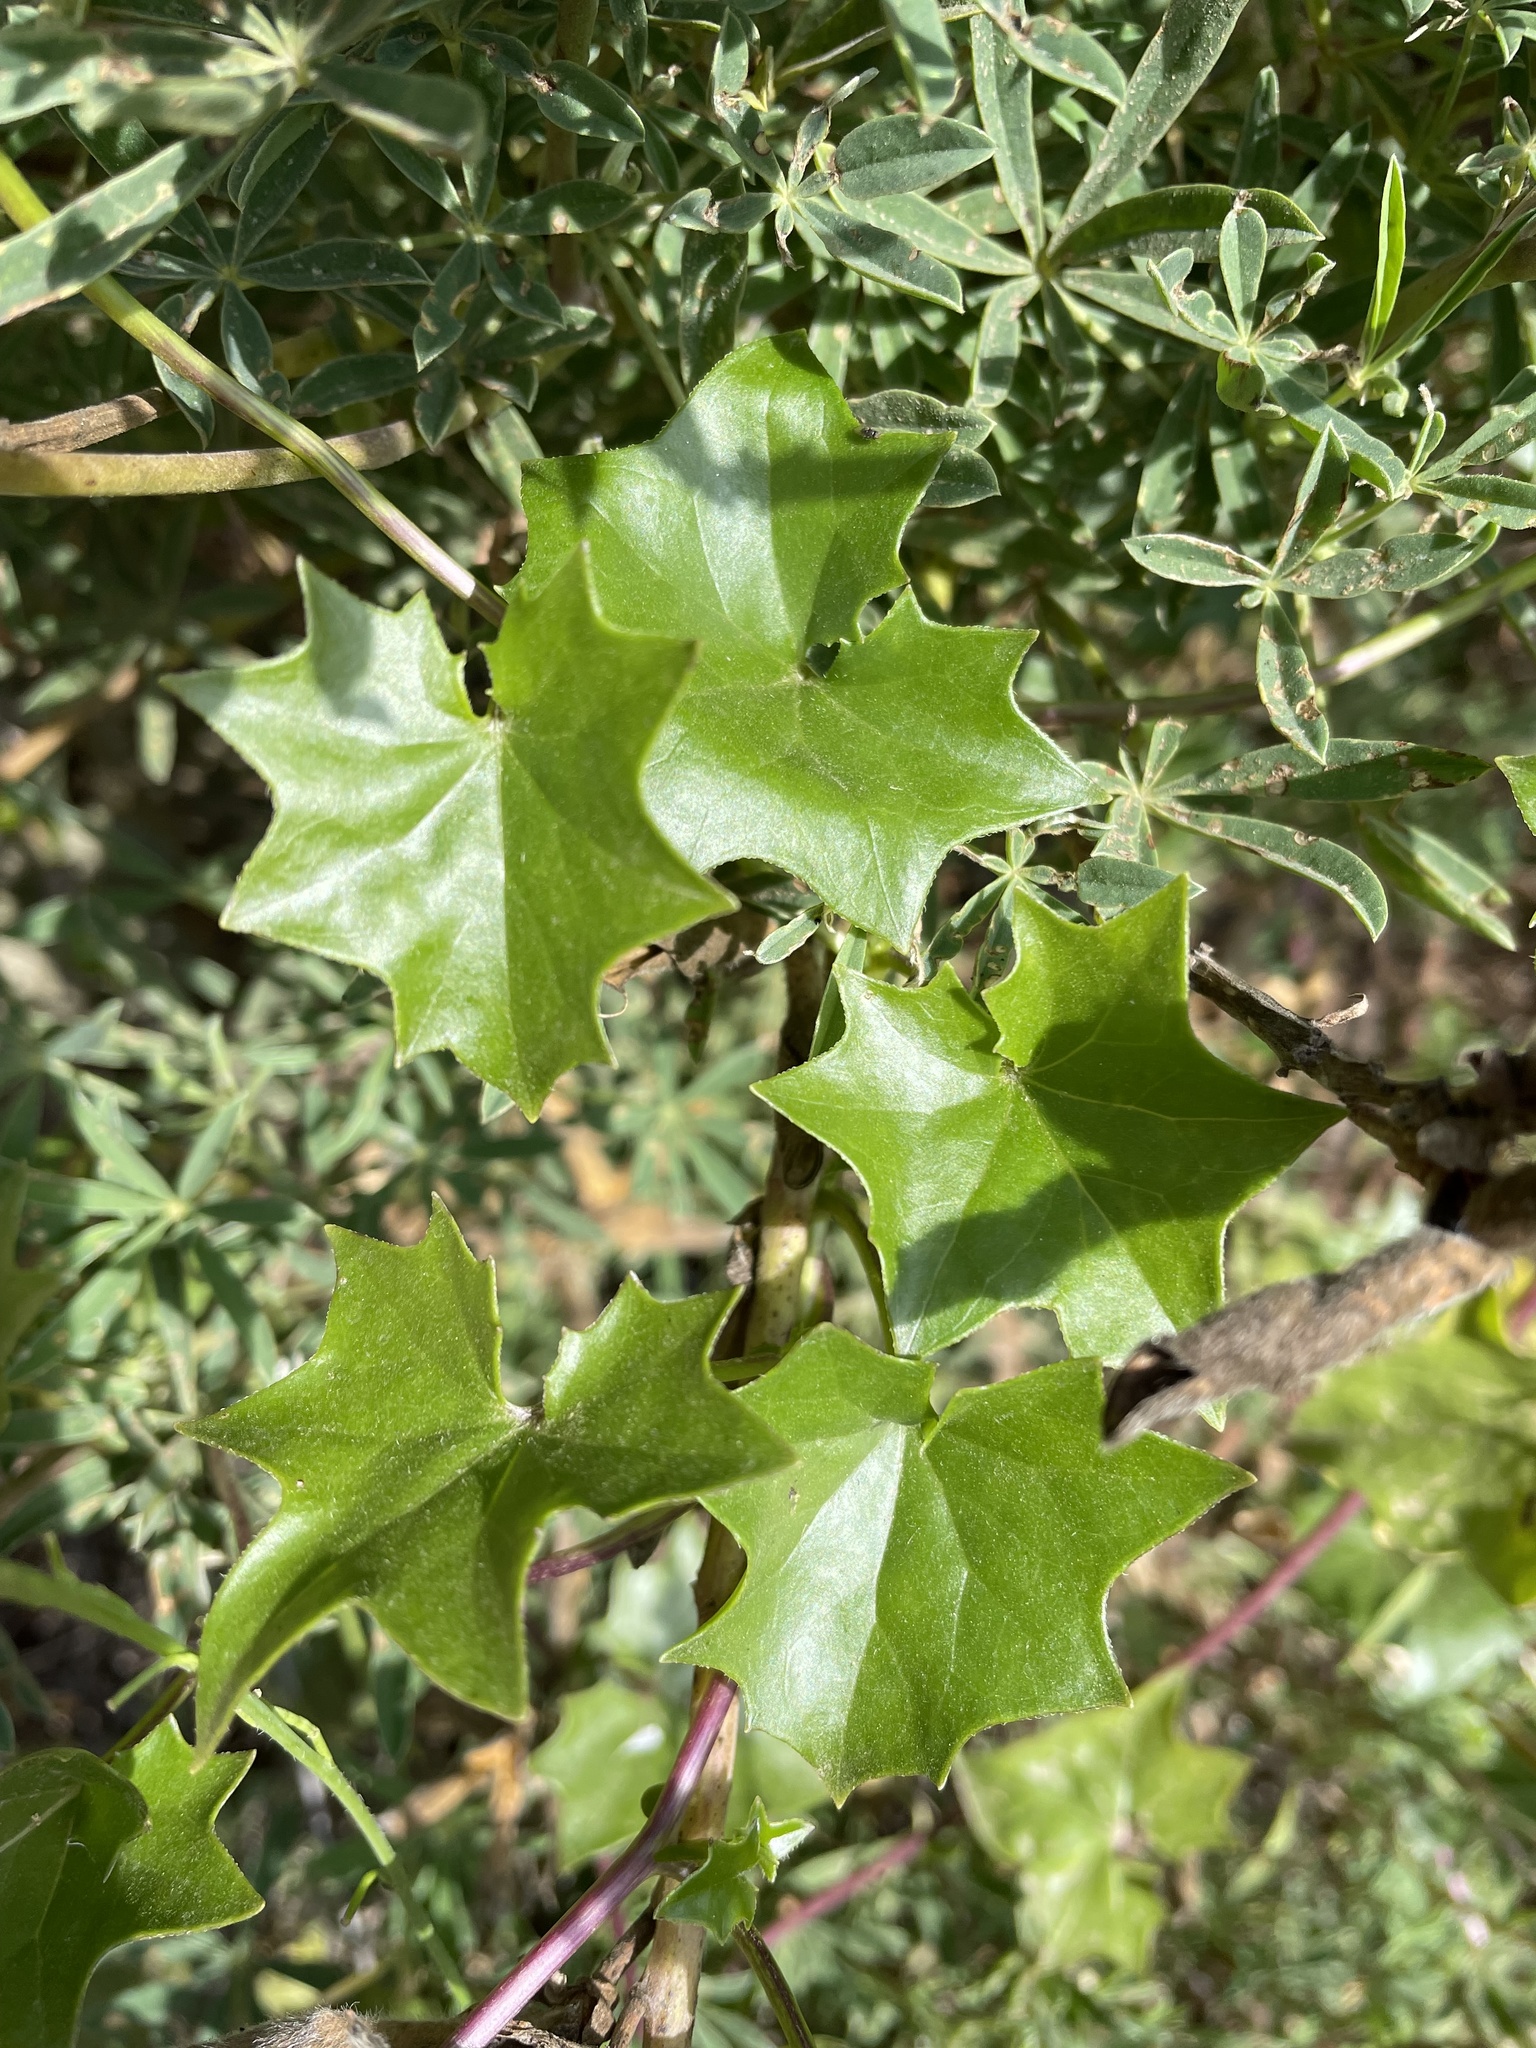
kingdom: Plantae
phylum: Tracheophyta
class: Magnoliopsida
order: Asterales
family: Asteraceae
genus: Delairea
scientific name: Delairea odorata
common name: Cape-ivy
